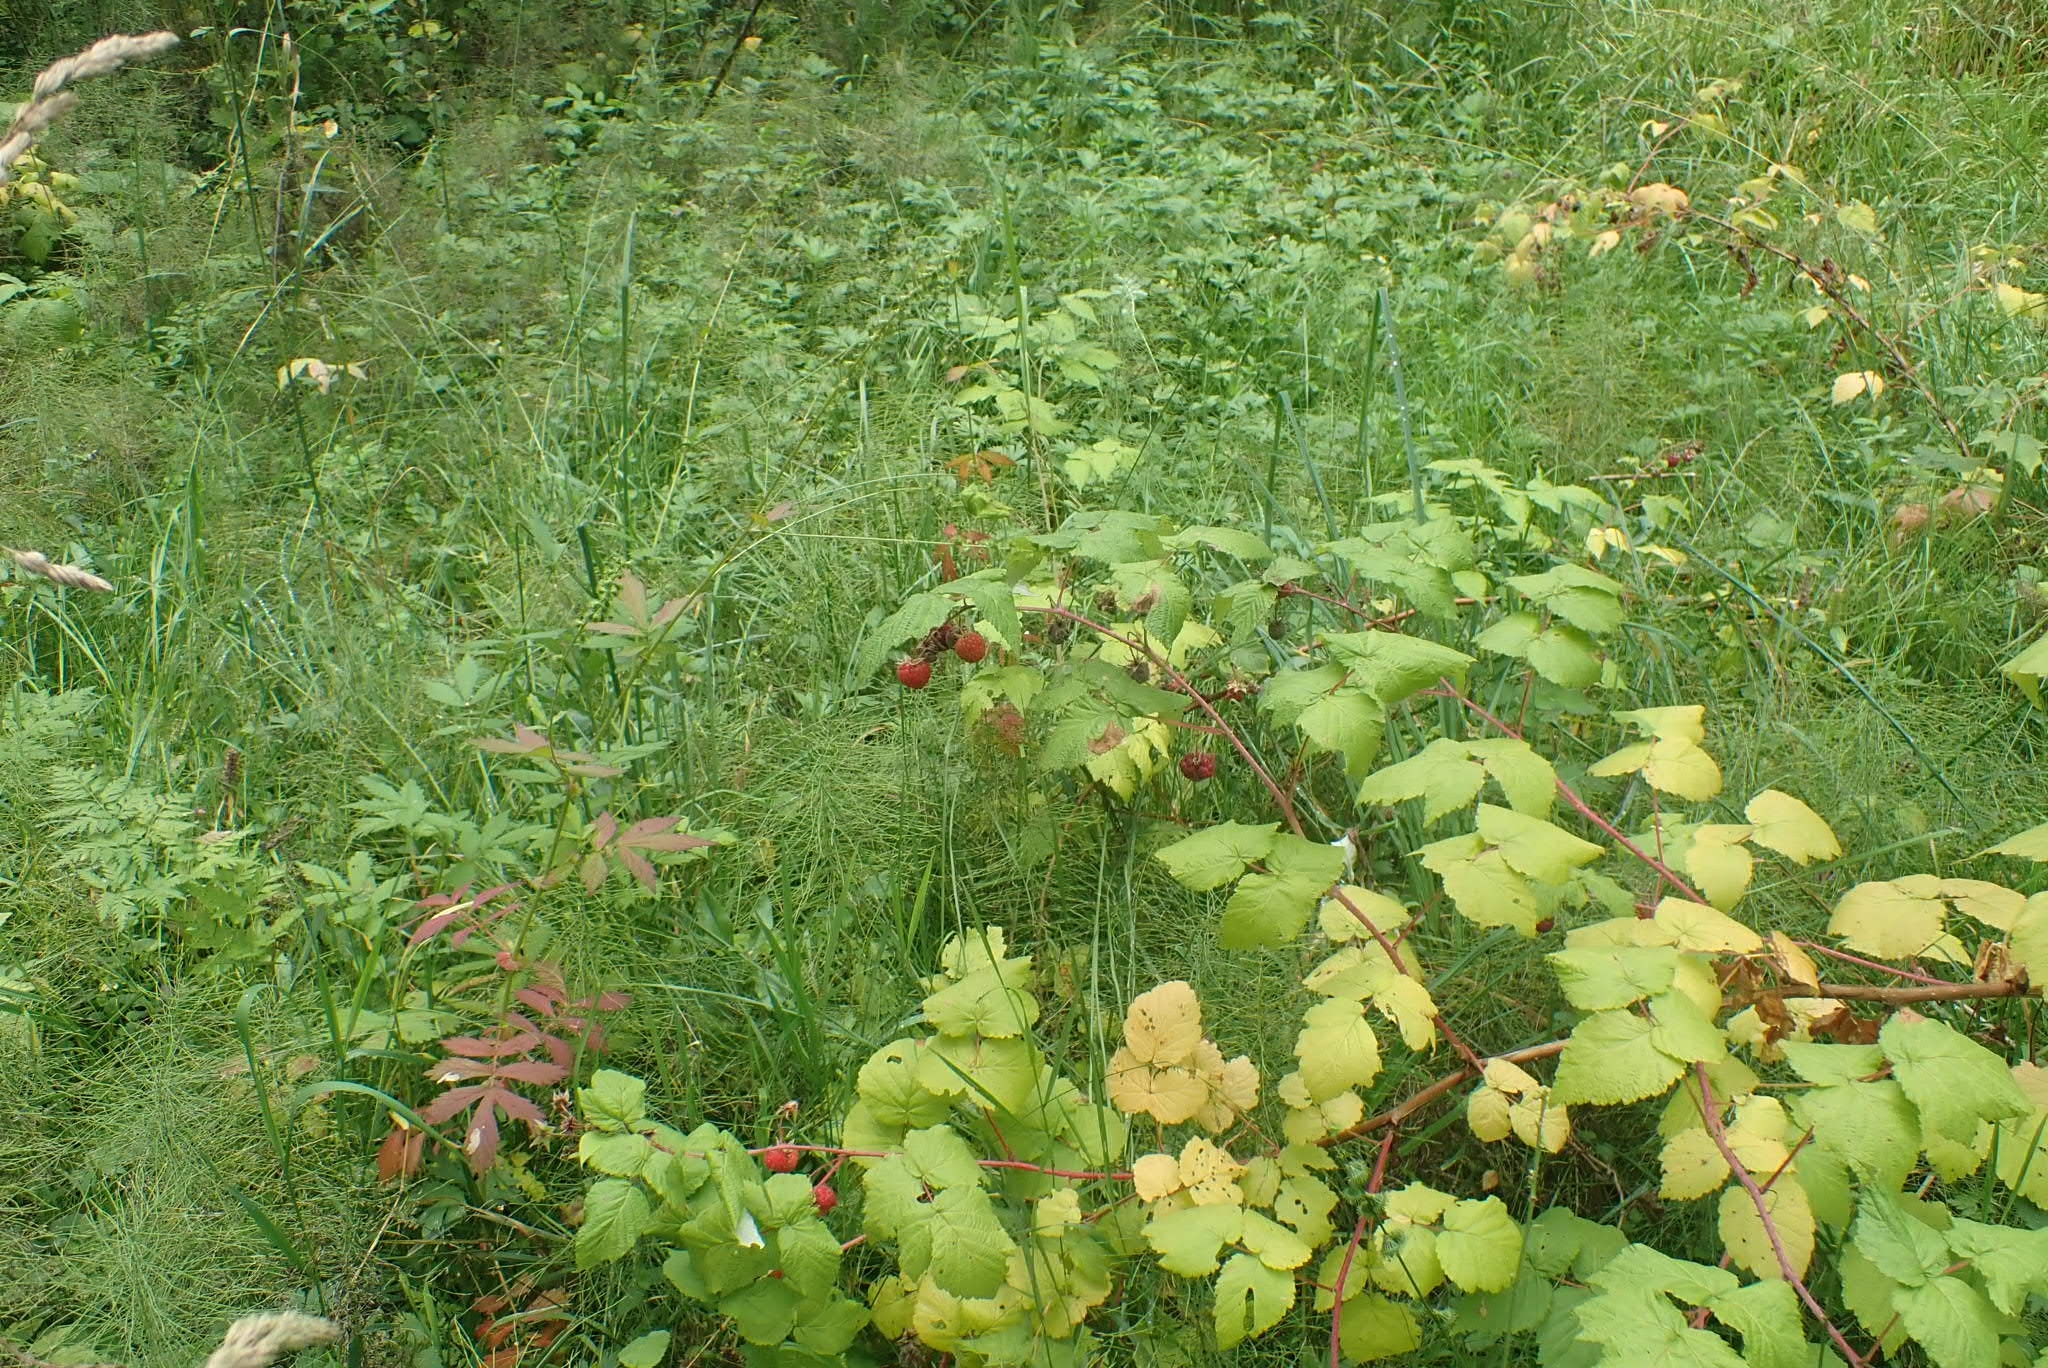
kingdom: Plantae
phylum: Tracheophyta
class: Magnoliopsida
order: Rosales
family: Rosaceae
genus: Rubus
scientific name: Rubus idaeus
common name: Raspberry
